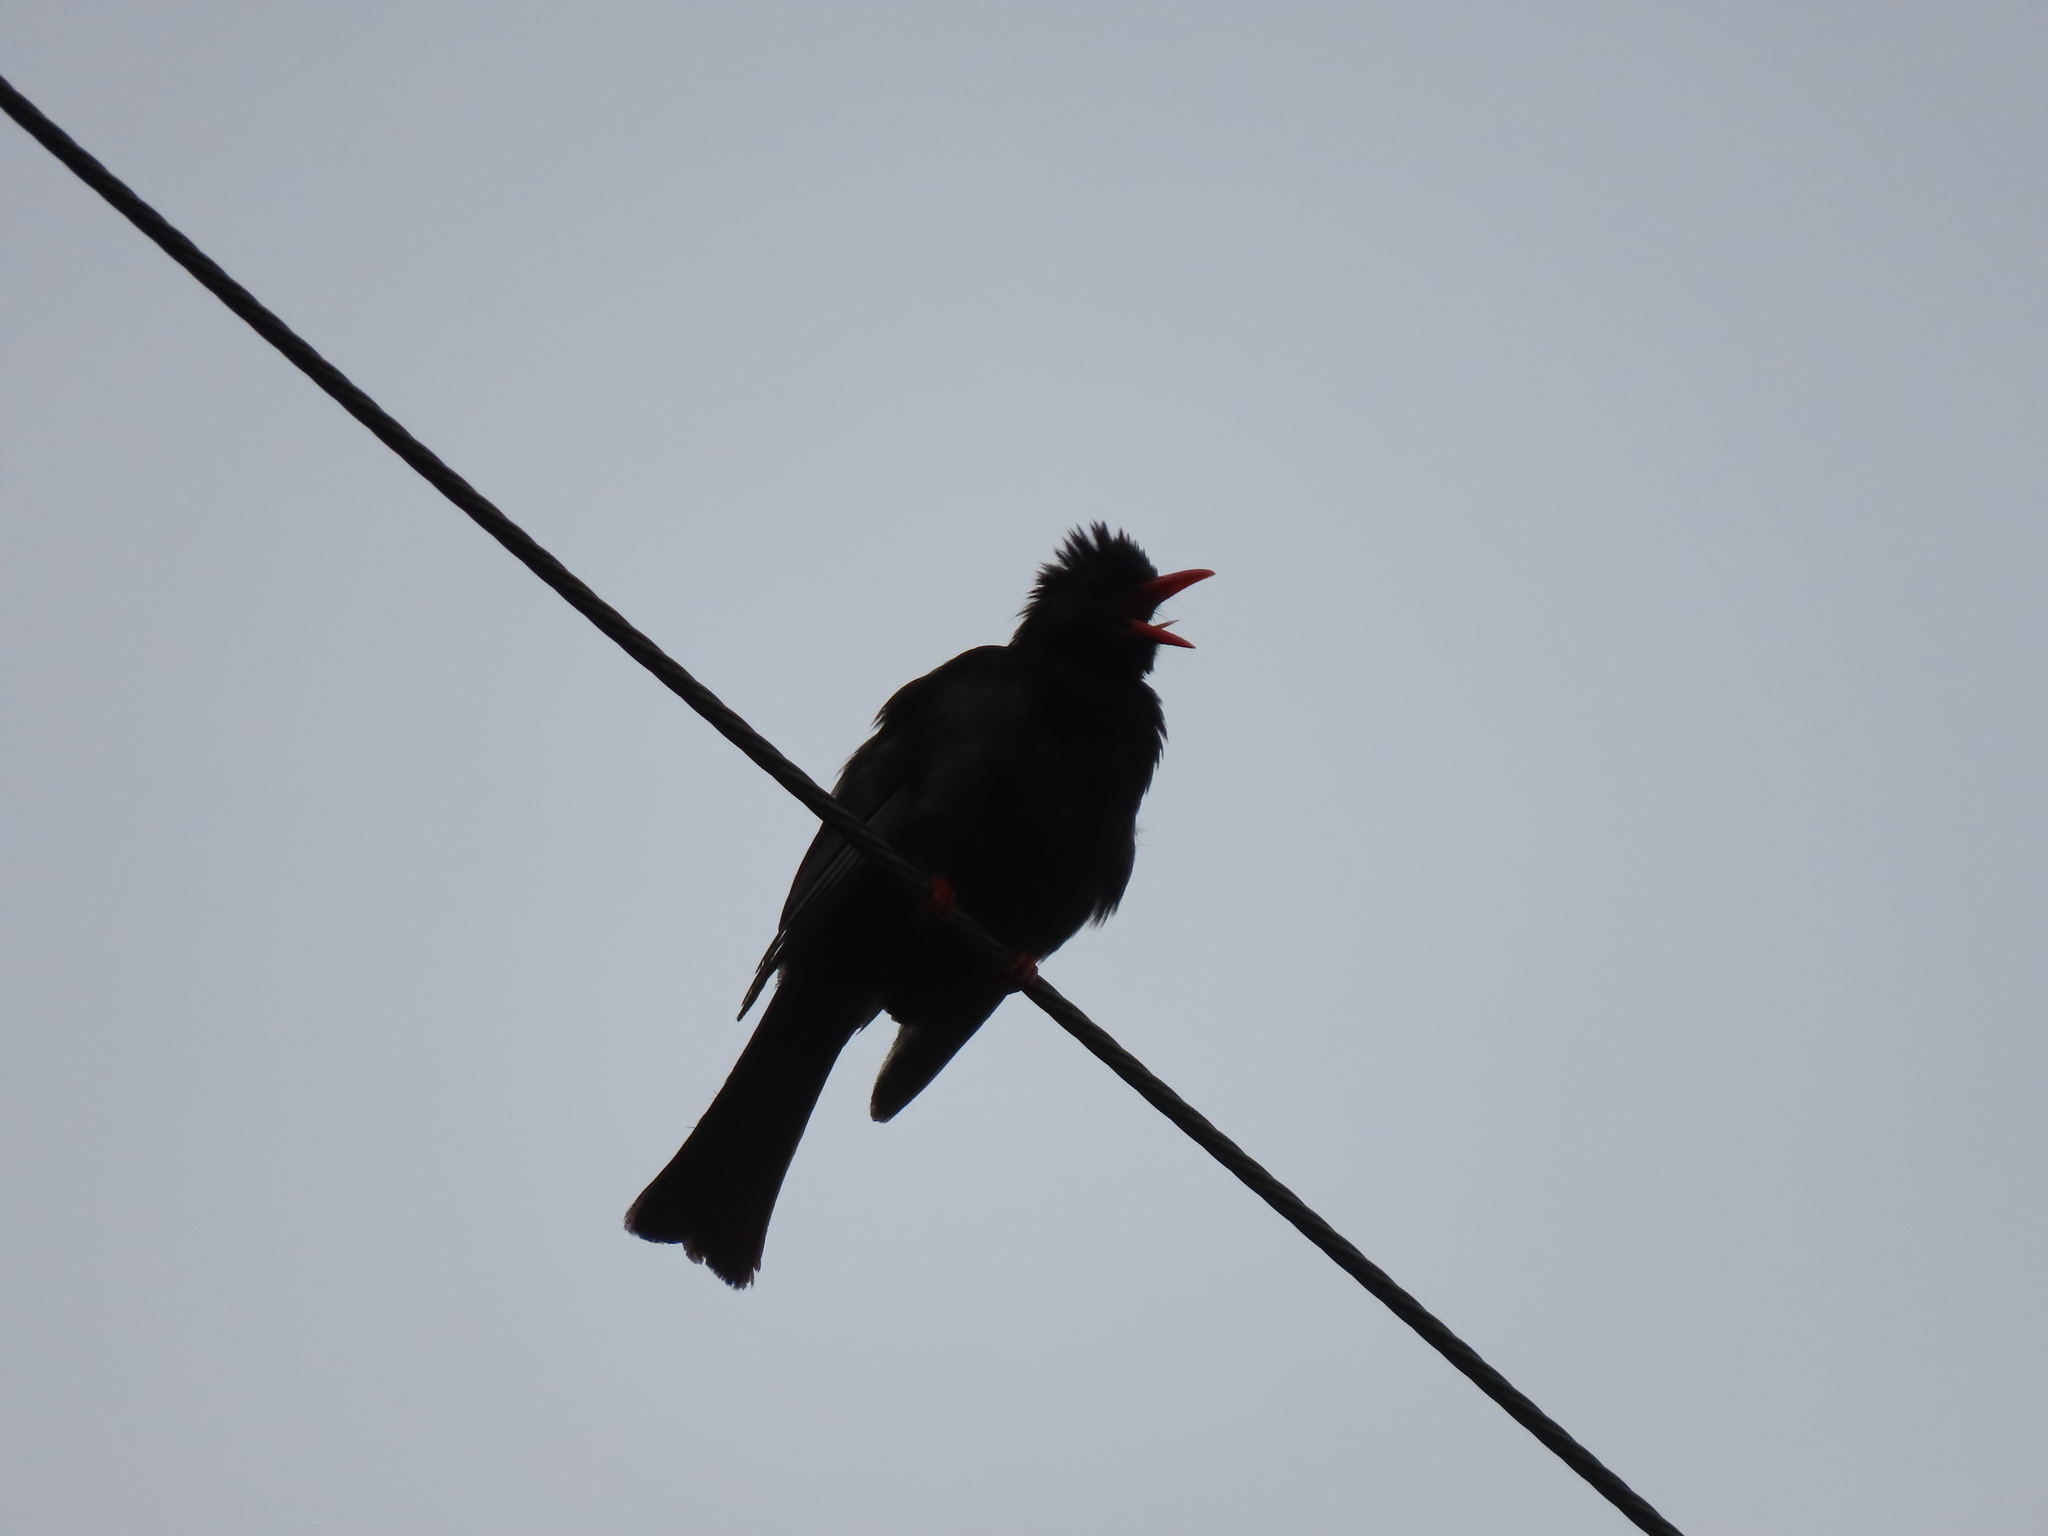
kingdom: Animalia
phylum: Chordata
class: Aves
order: Passeriformes
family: Pycnonotidae
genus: Hypsipetes
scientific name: Hypsipetes leucocephalus
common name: Black bulbul
